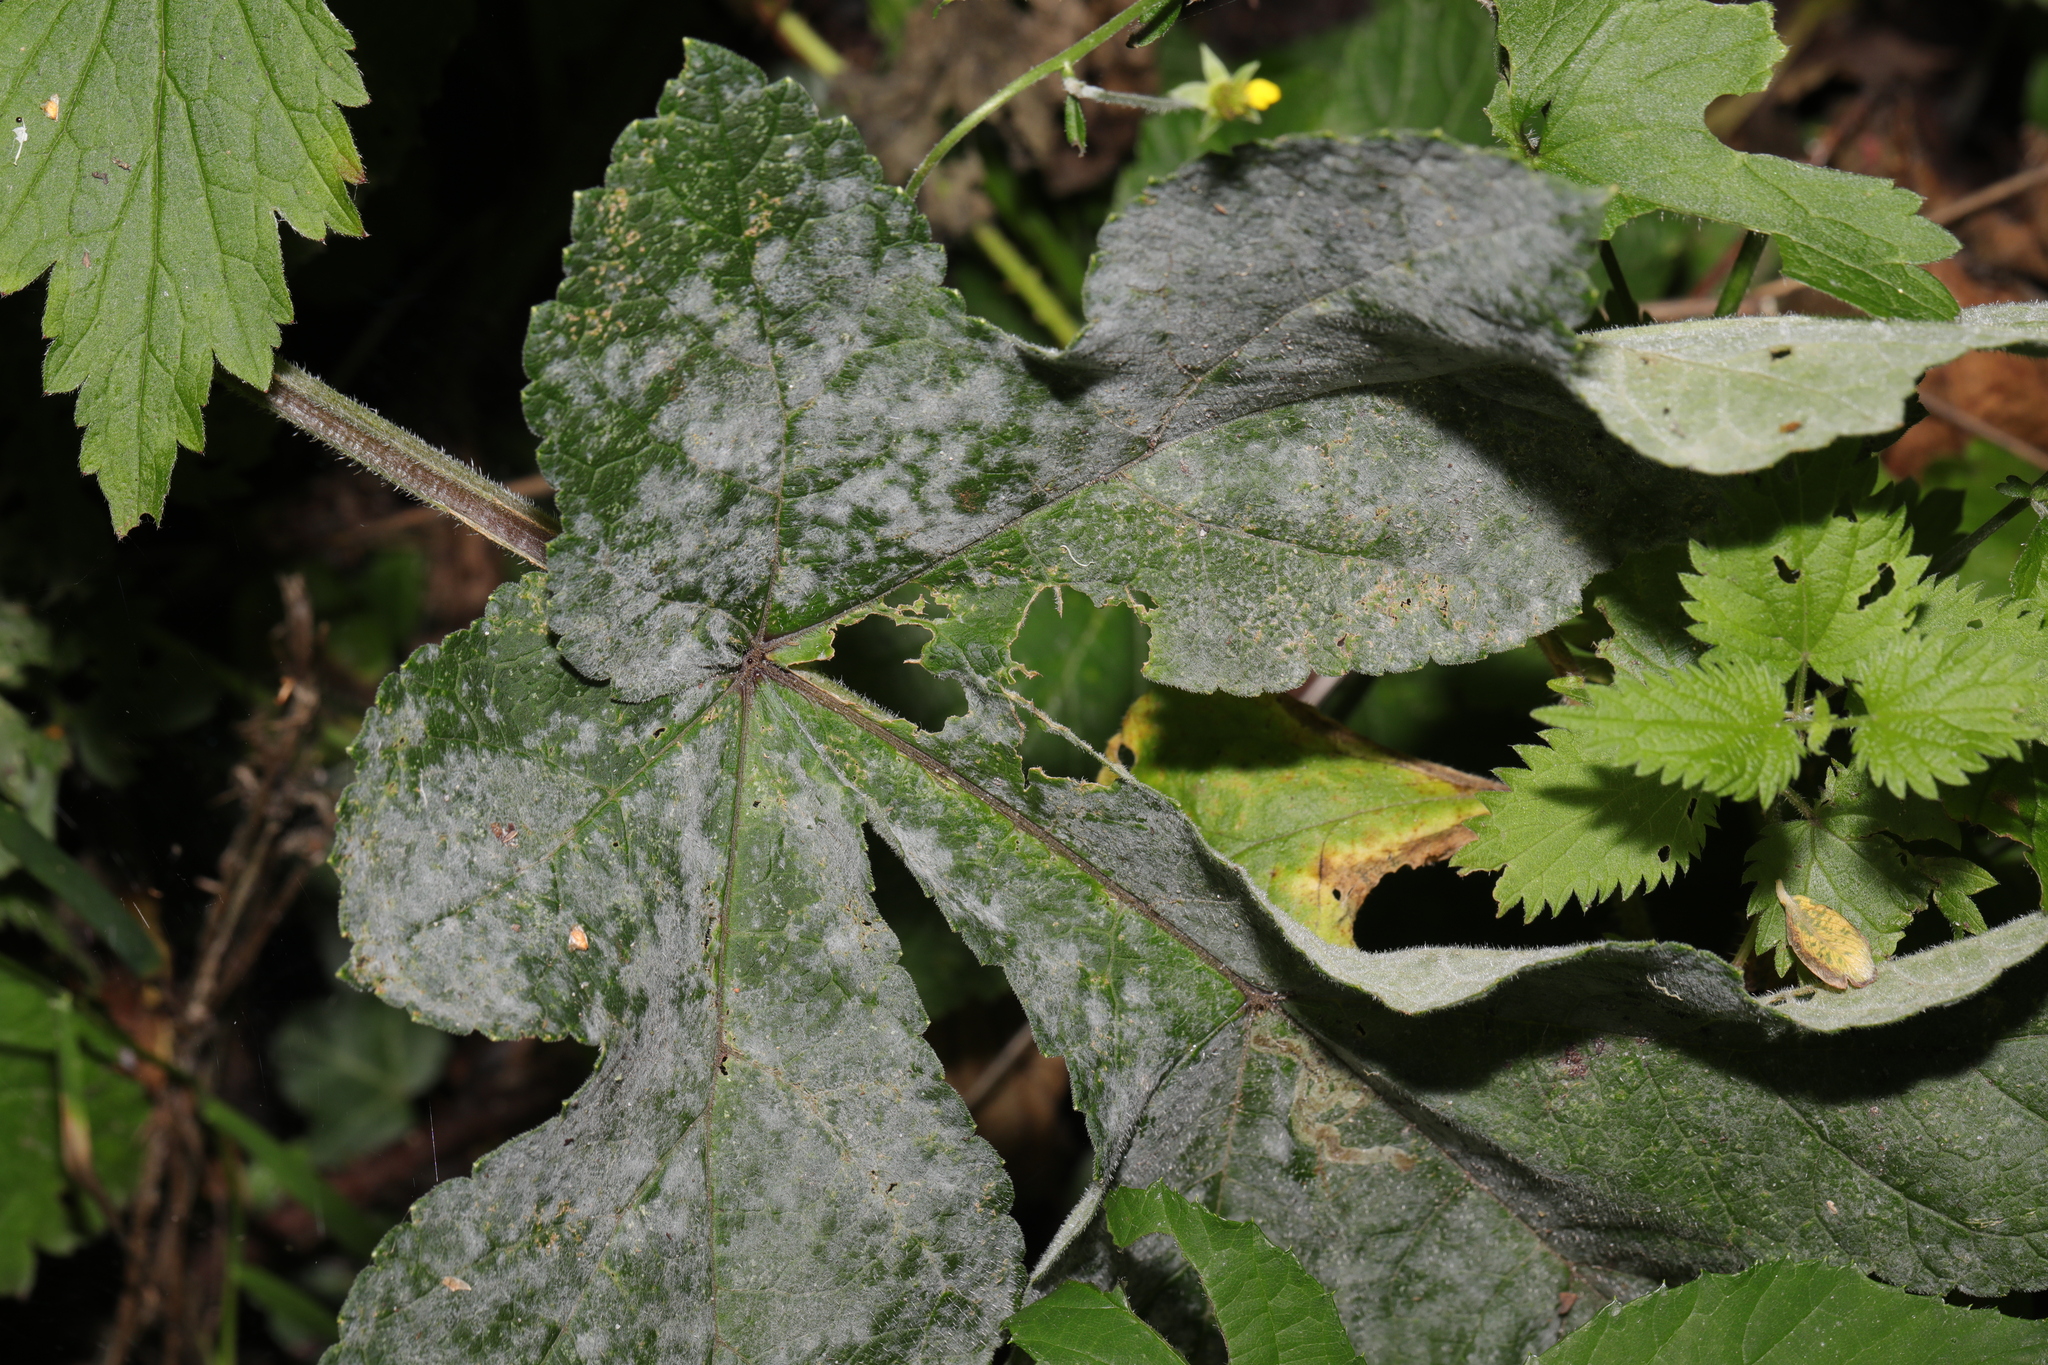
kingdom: Fungi
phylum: Ascomycota
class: Leotiomycetes
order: Helotiales
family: Erysiphaceae
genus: Erysiphe
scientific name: Erysiphe heraclei
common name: Umbellifer mildew
